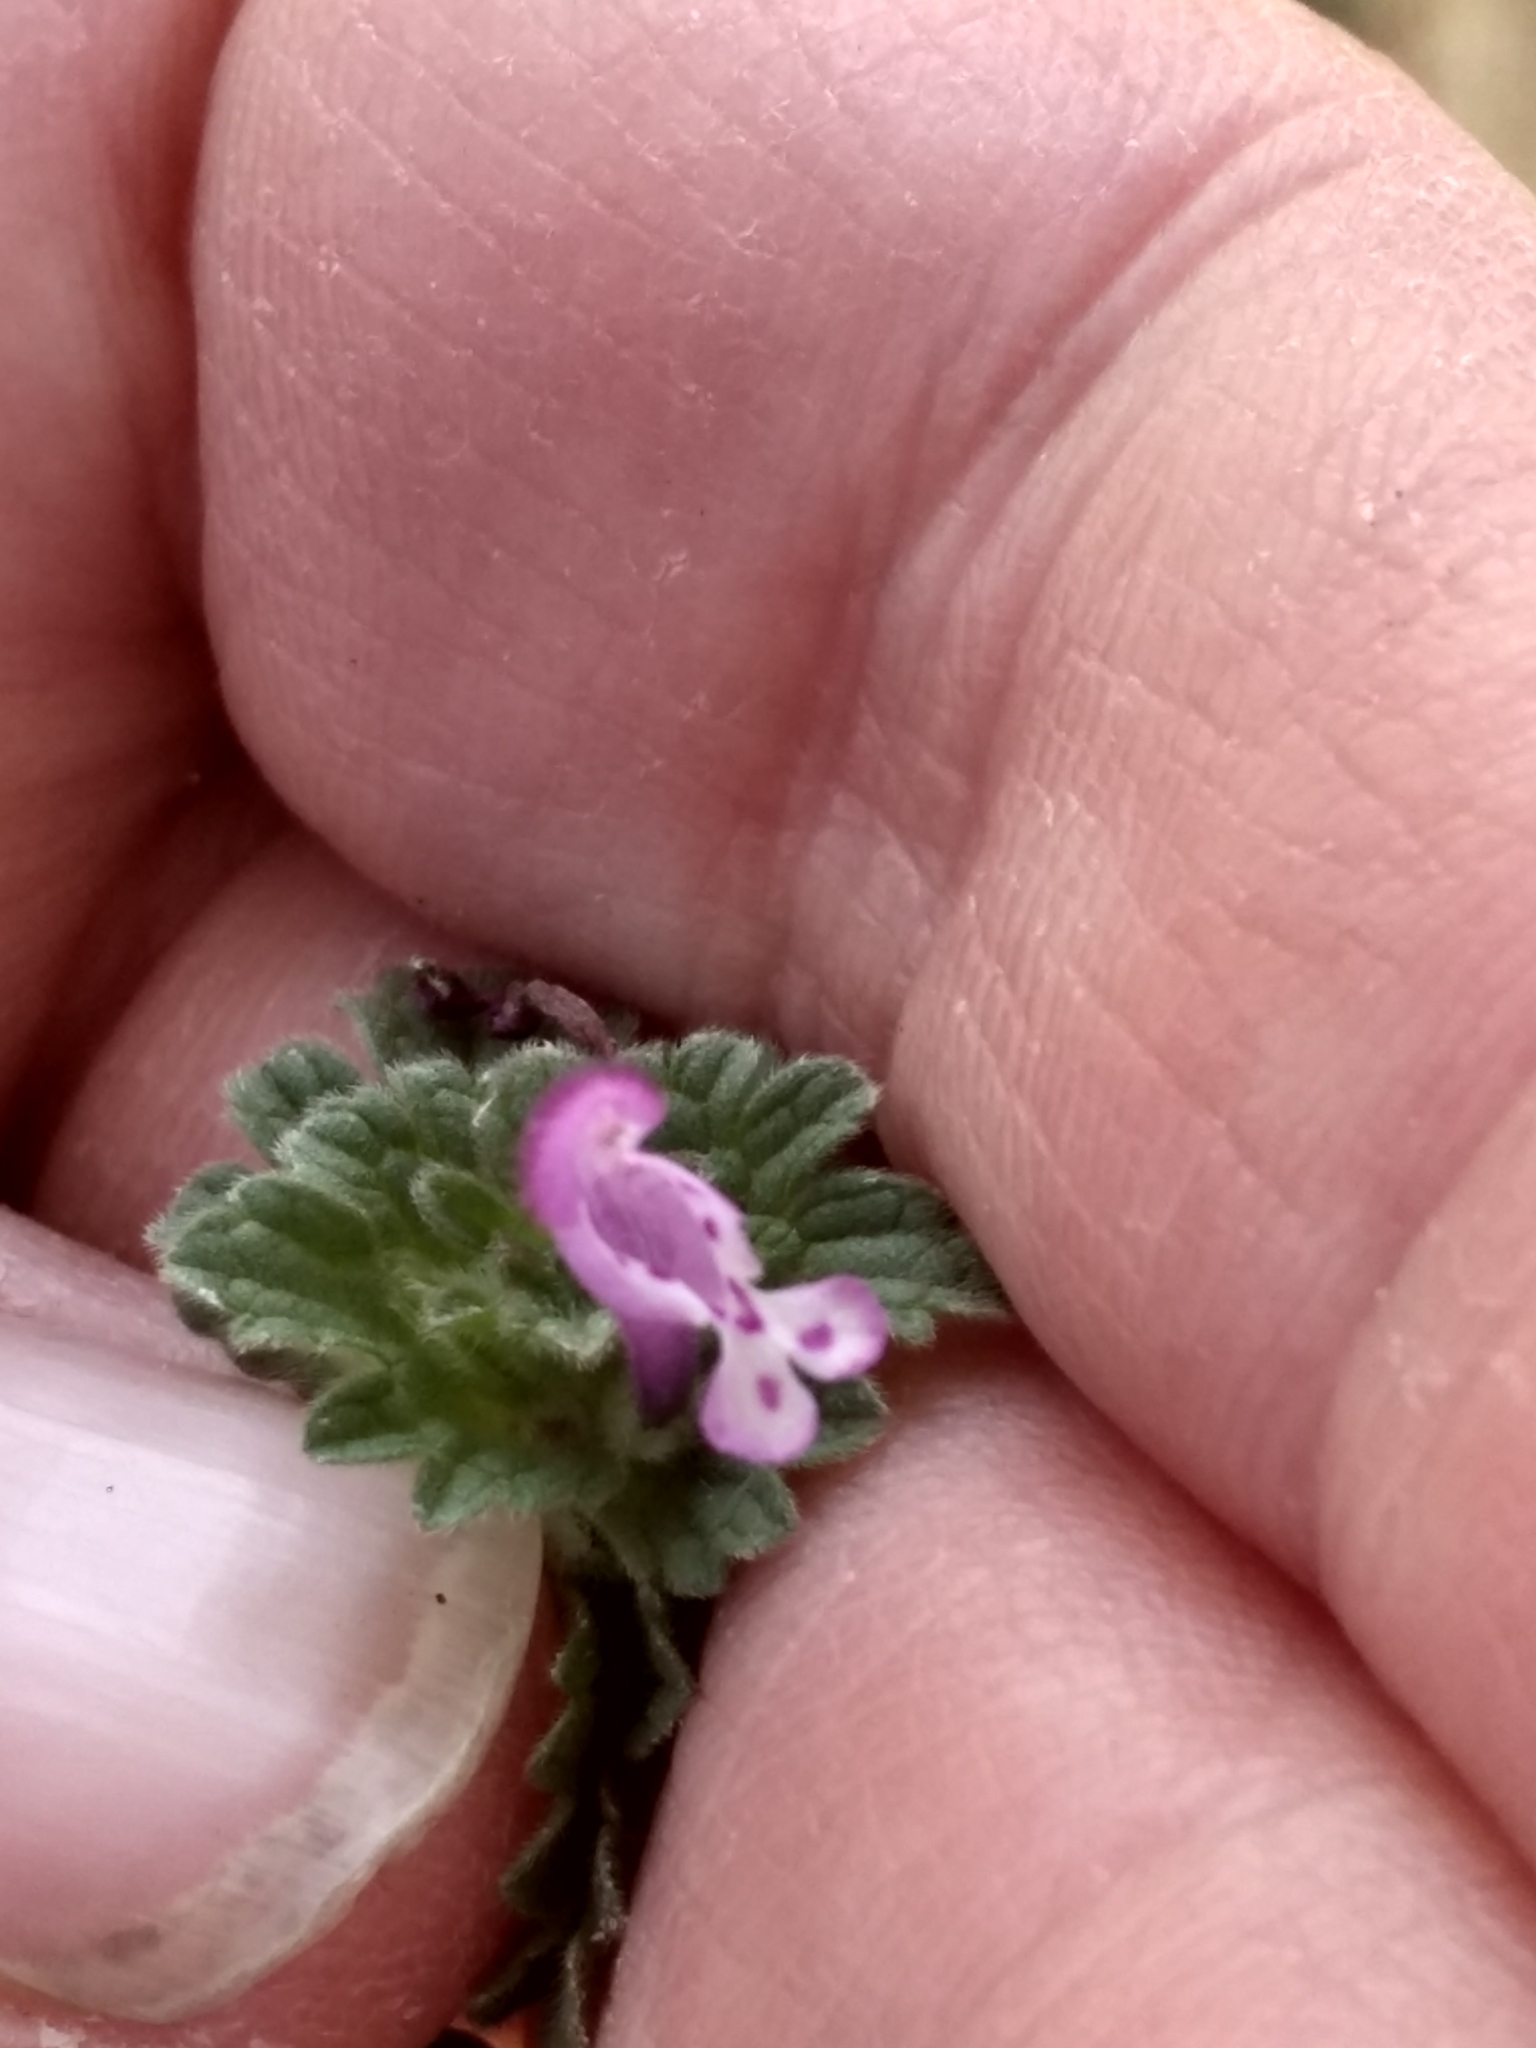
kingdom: Plantae
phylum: Tracheophyta
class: Magnoliopsida
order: Lamiales
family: Lamiaceae
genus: Lamium
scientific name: Lamium amplexicaule
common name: Henbit dead-nettle
